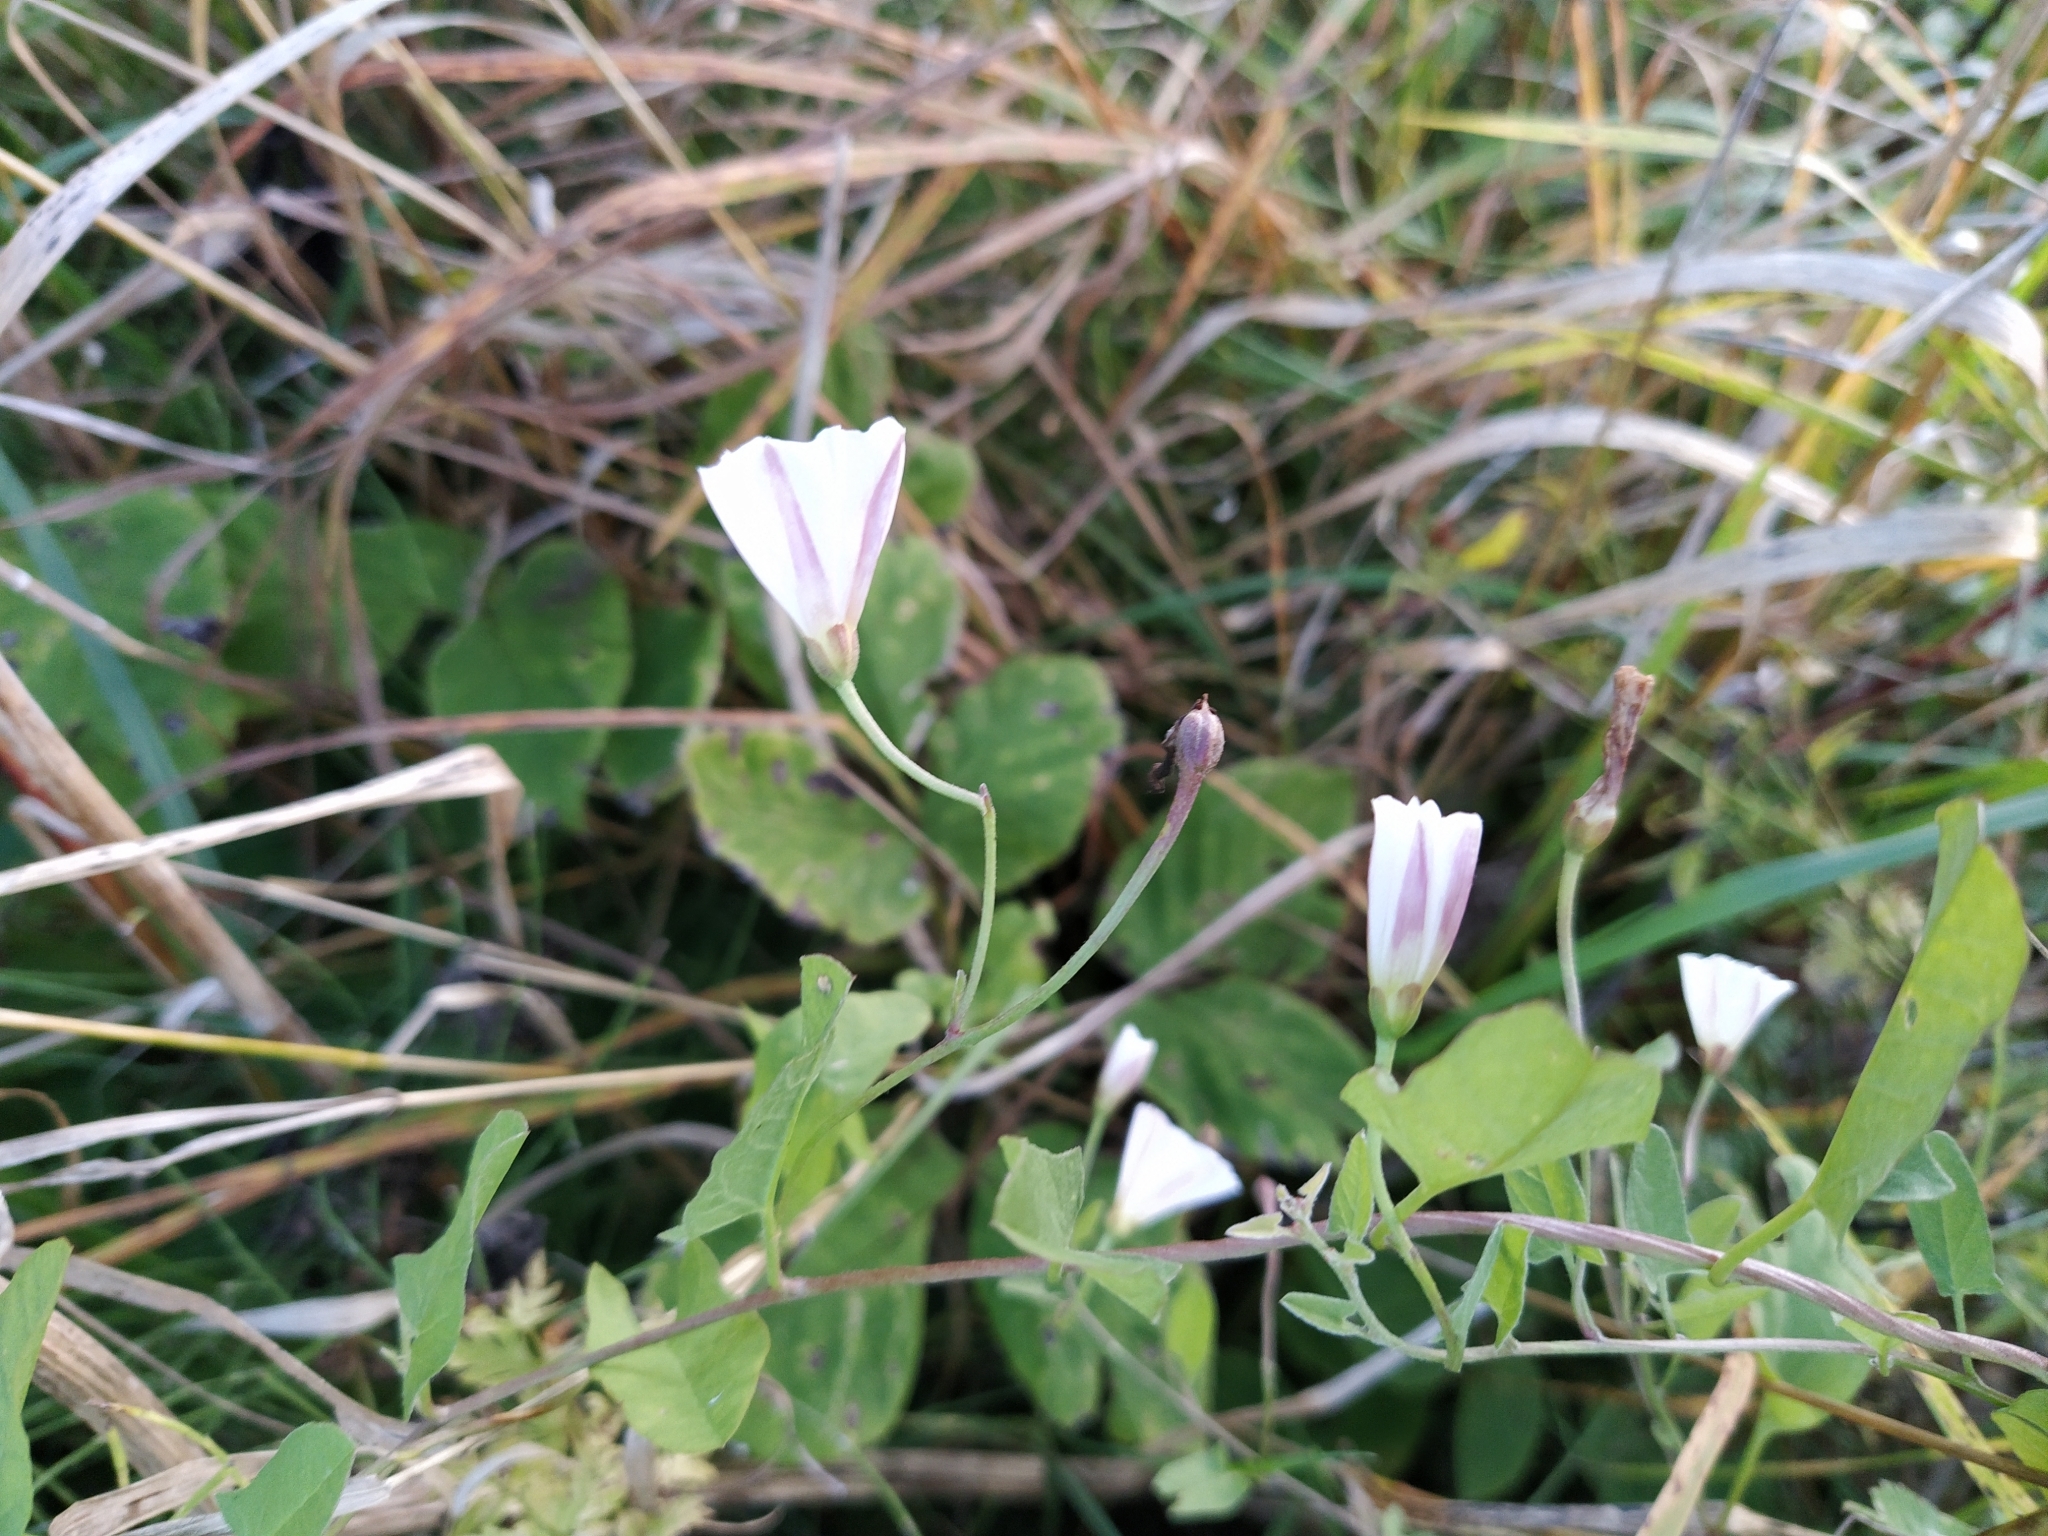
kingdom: Plantae
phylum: Tracheophyta
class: Magnoliopsida
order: Solanales
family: Convolvulaceae
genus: Convolvulus
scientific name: Convolvulus arvensis
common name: Field bindweed
